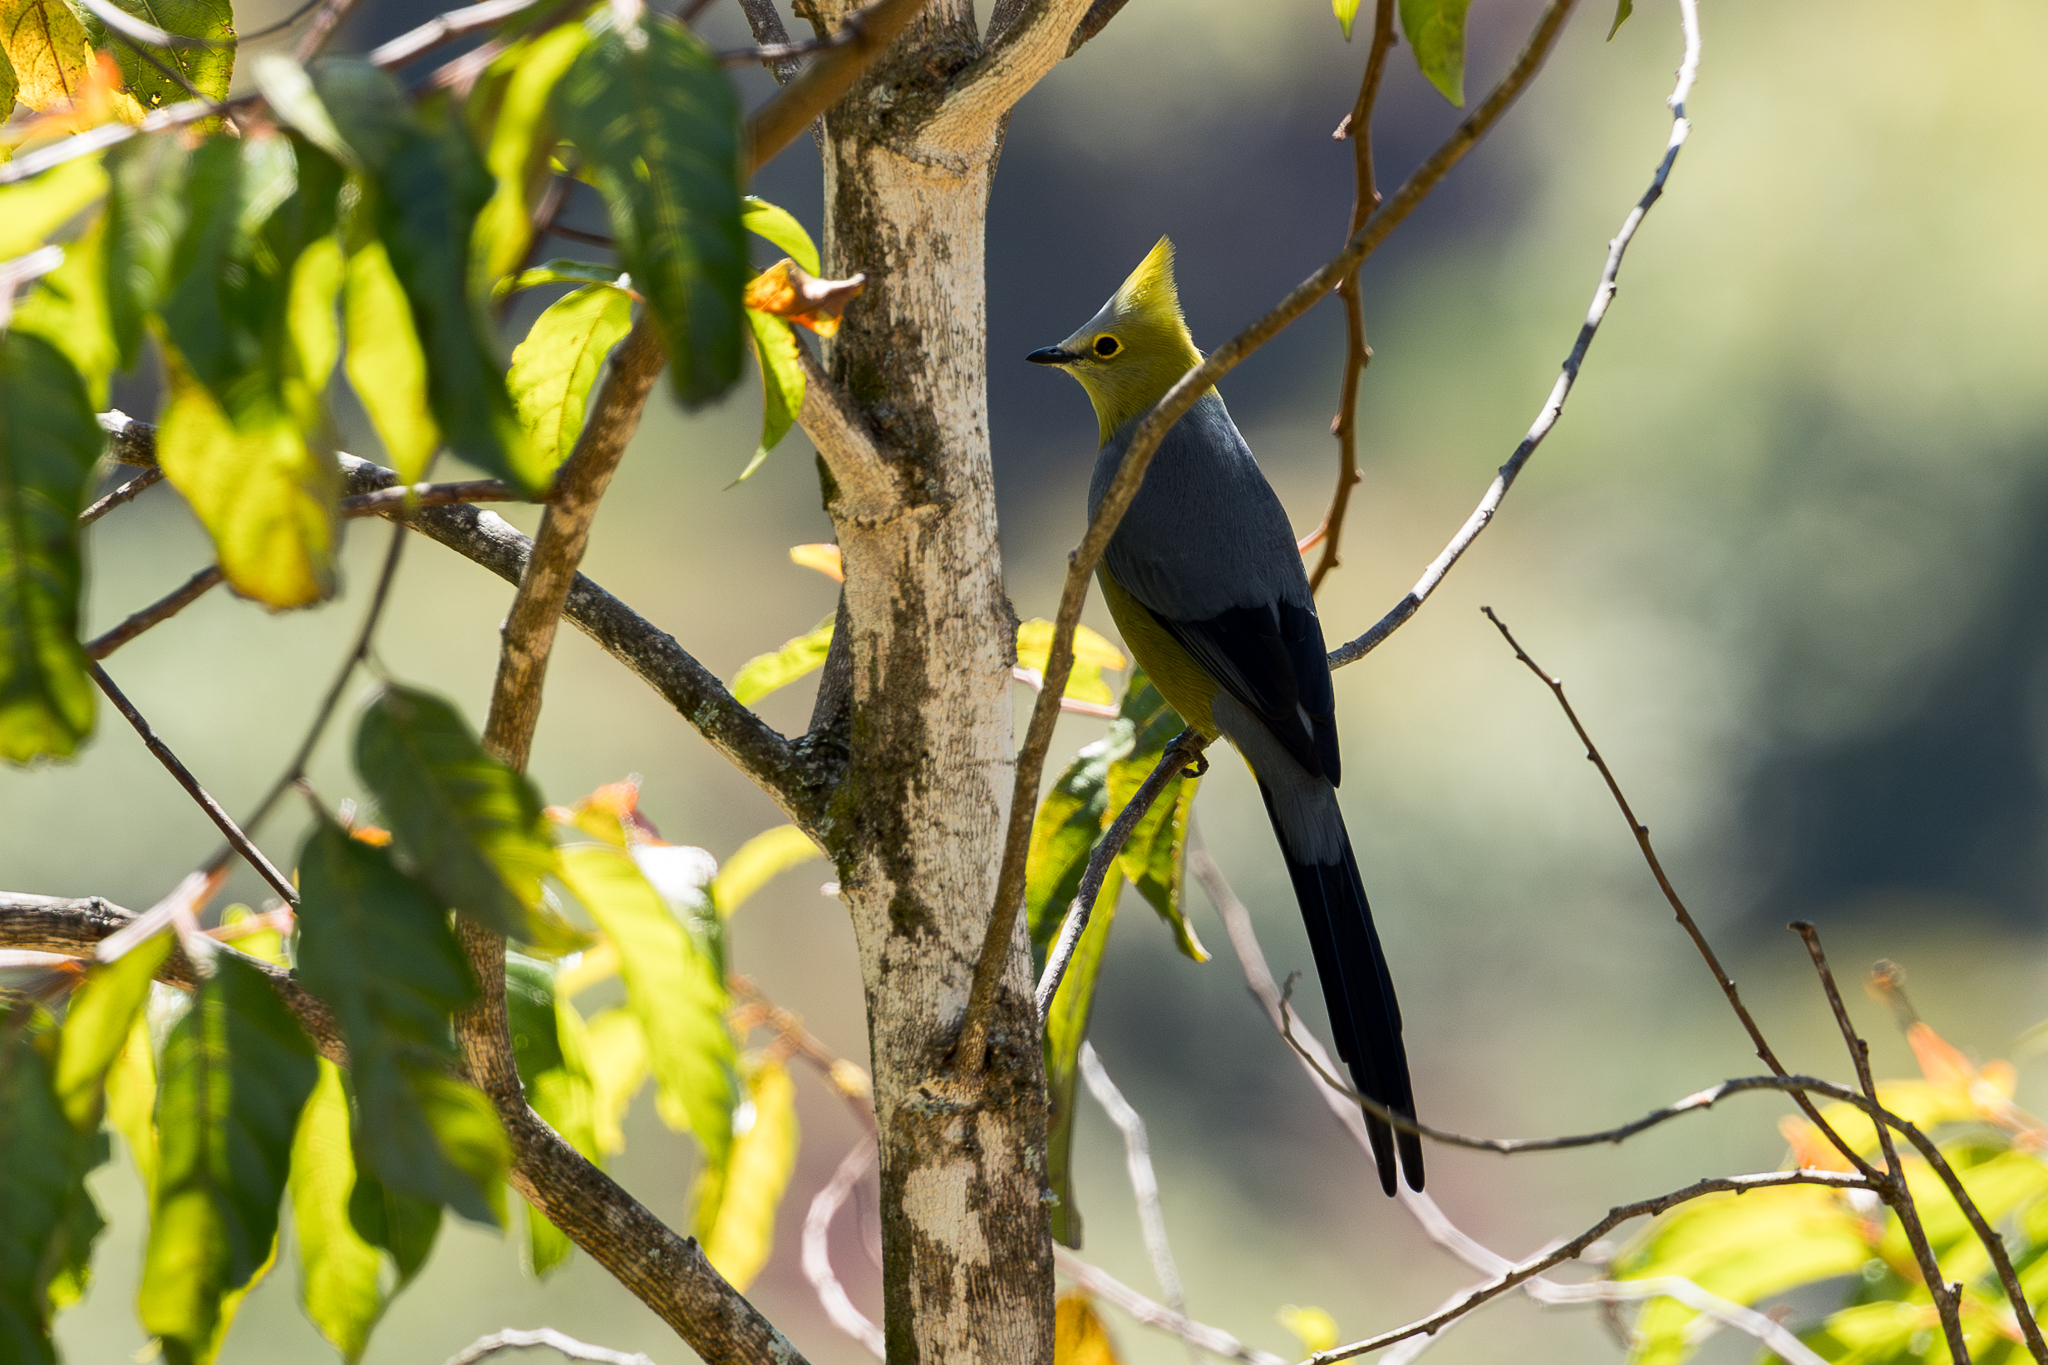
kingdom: Animalia
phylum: Chordata
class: Aves
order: Passeriformes
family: Ptilogonatidae
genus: Ptilogonys
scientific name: Ptilogonys caudatus
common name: Long-tailed silky-flycatcher
